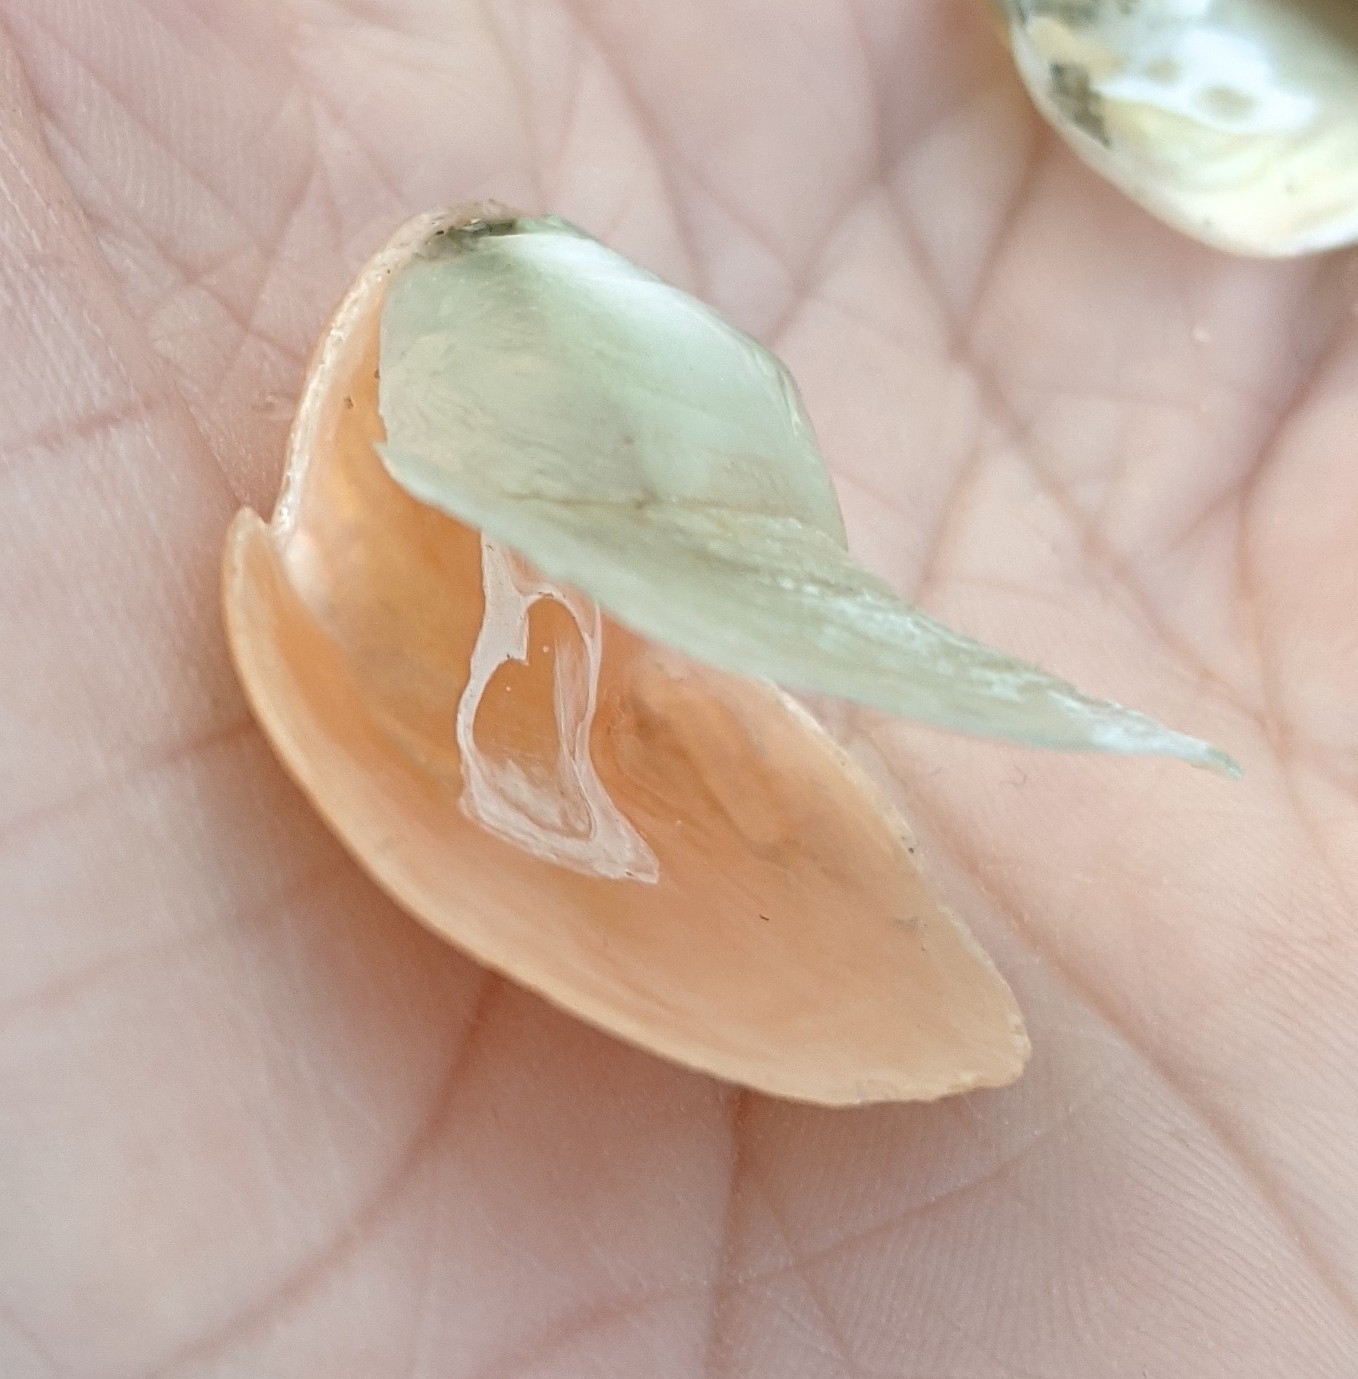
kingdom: Animalia
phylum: Mollusca
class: Bivalvia
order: Pectinida
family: Anomiidae
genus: Anomia
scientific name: Anomia simplex
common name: Common jingle shell
